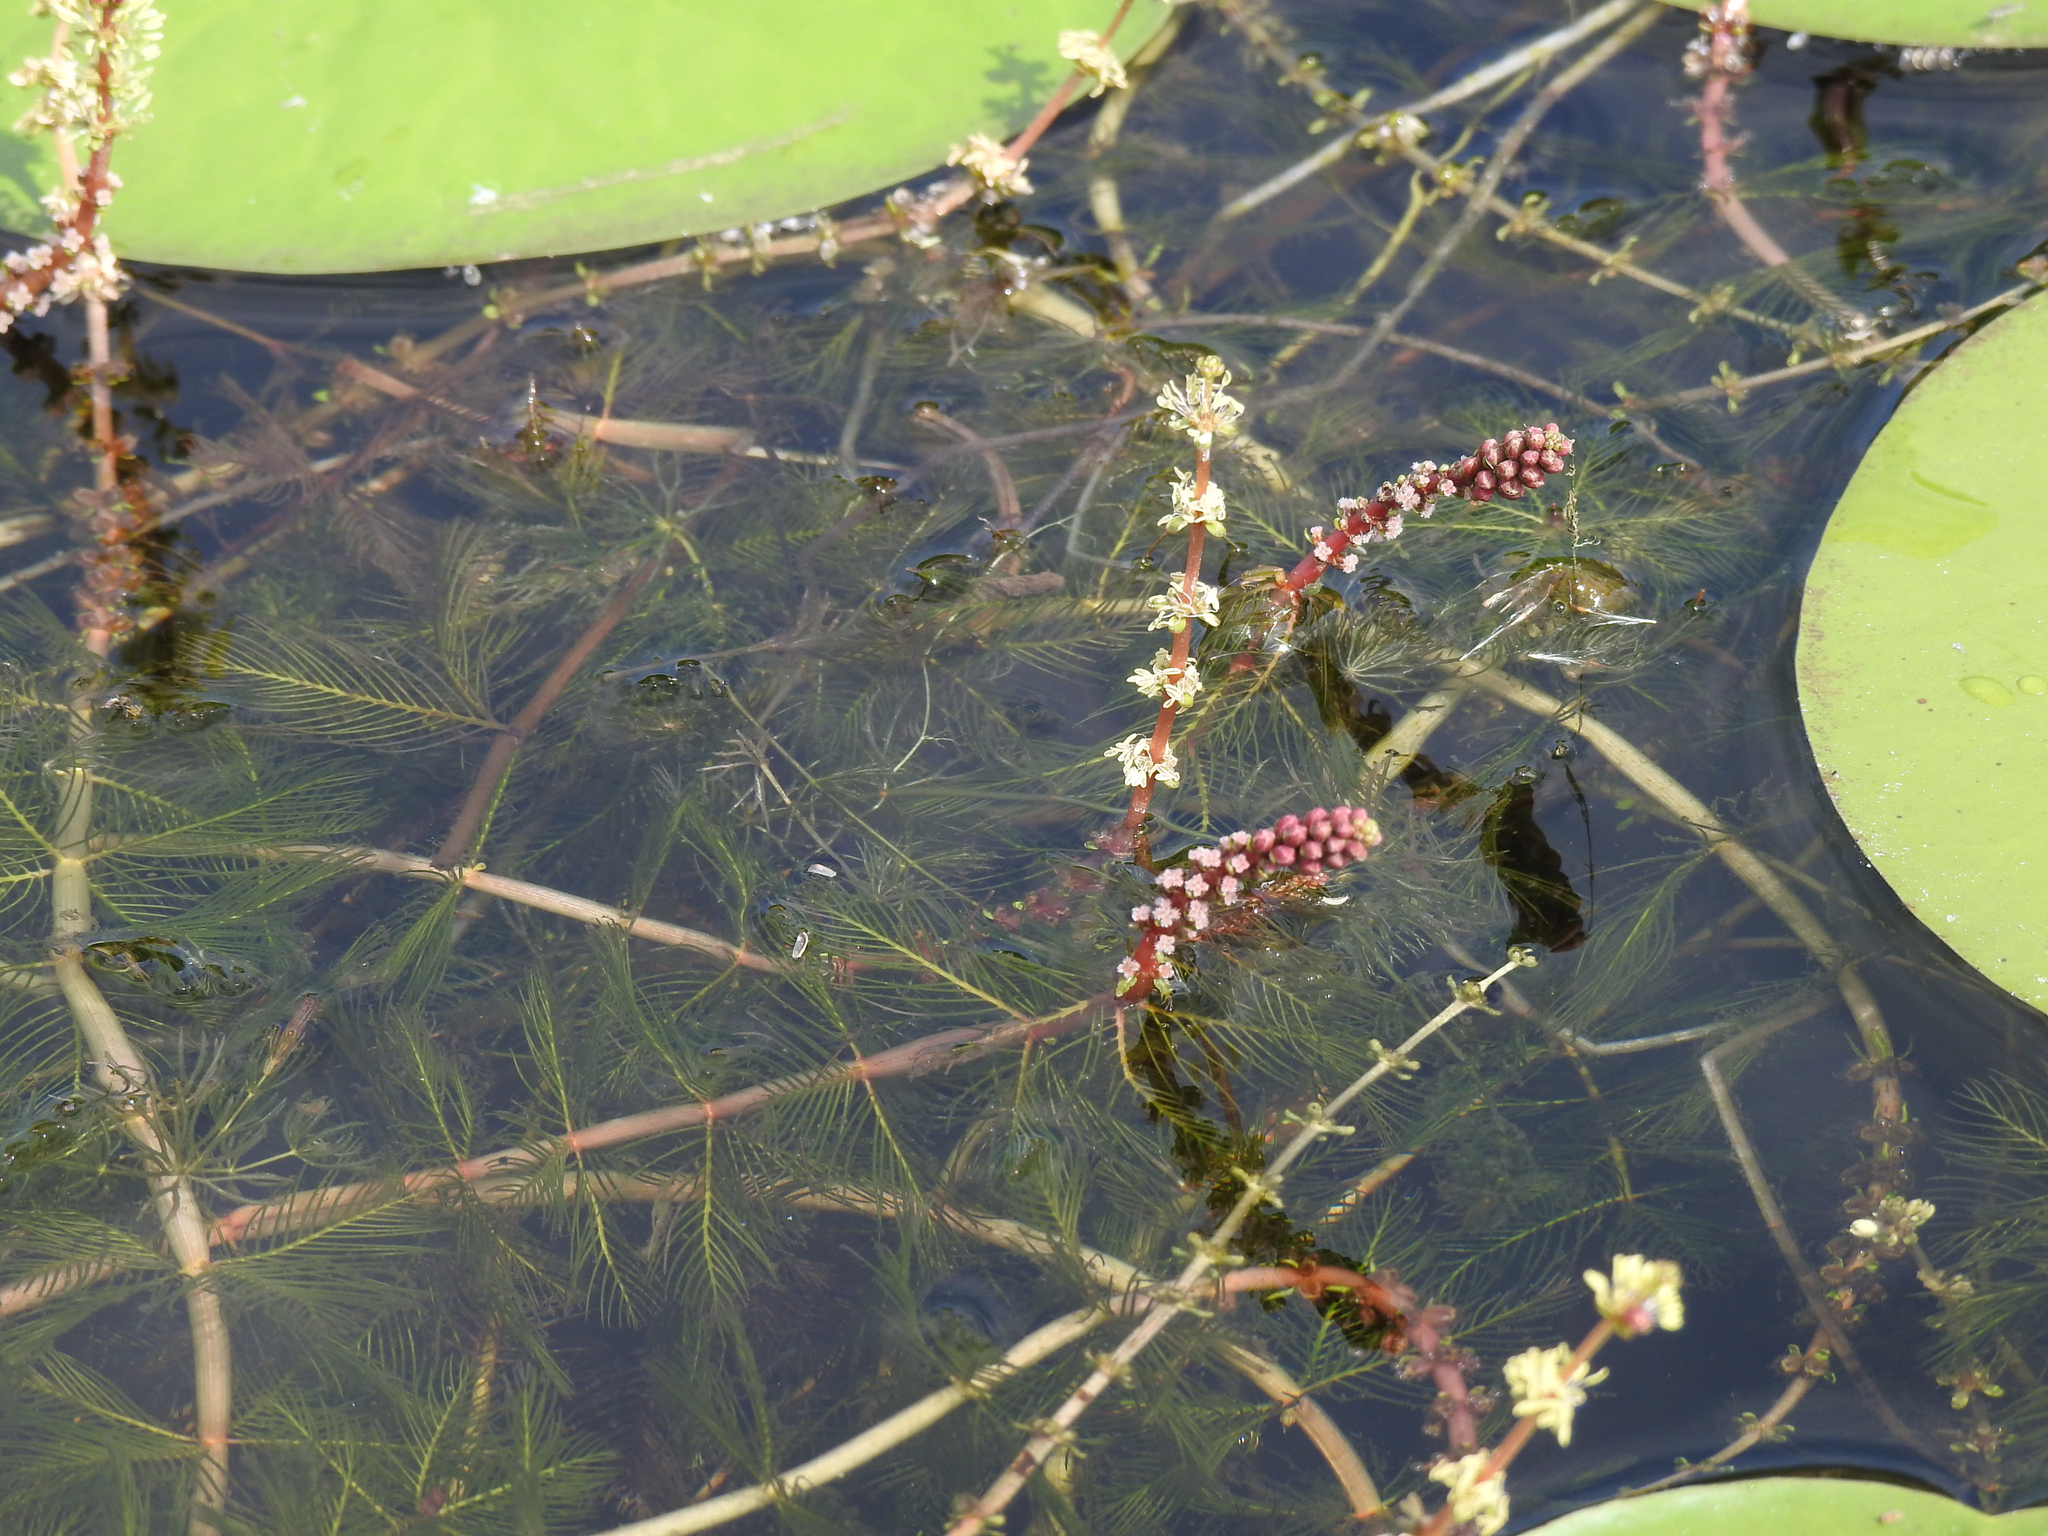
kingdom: Plantae
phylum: Tracheophyta
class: Magnoliopsida
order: Saxifragales
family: Haloragaceae
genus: Myriophyllum
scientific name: Myriophyllum spicatum
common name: Spiked water-milfoil
